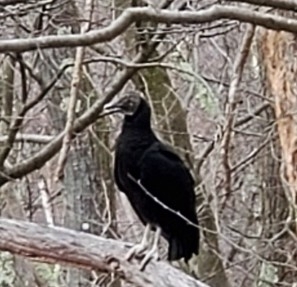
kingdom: Animalia
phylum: Chordata
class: Aves
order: Accipitriformes
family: Cathartidae
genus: Coragyps
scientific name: Coragyps atratus
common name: Black vulture
